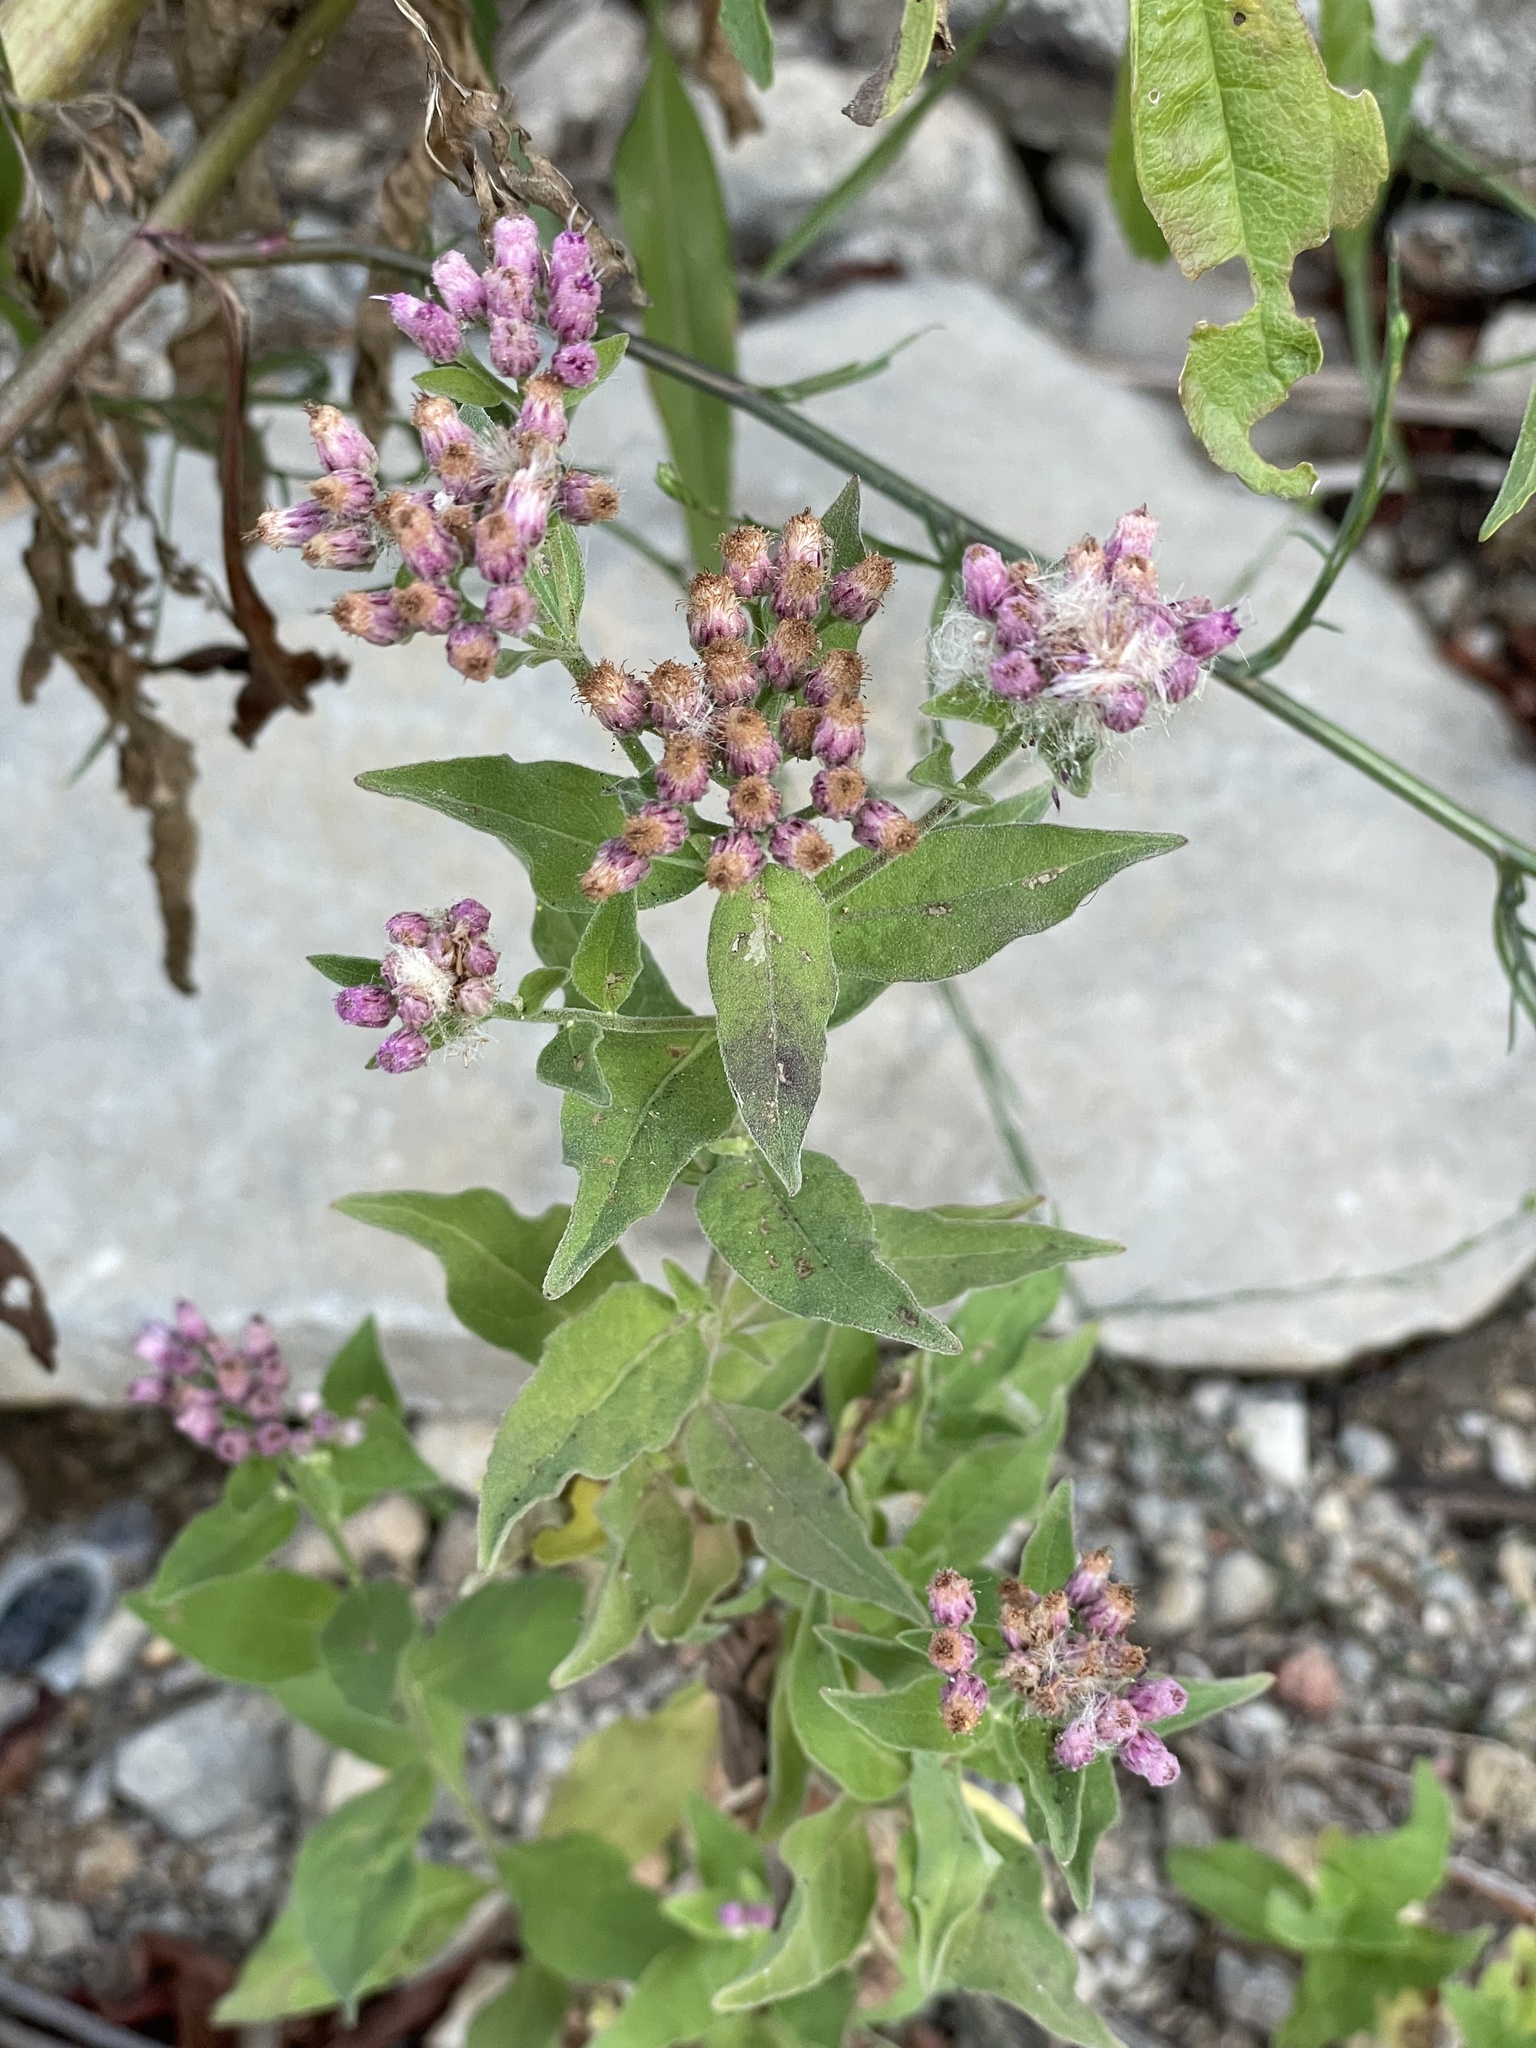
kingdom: Plantae
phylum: Tracheophyta
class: Magnoliopsida
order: Asterales
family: Asteraceae
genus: Pluchea
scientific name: Pluchea odorata
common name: Saltmarsh fleabane
